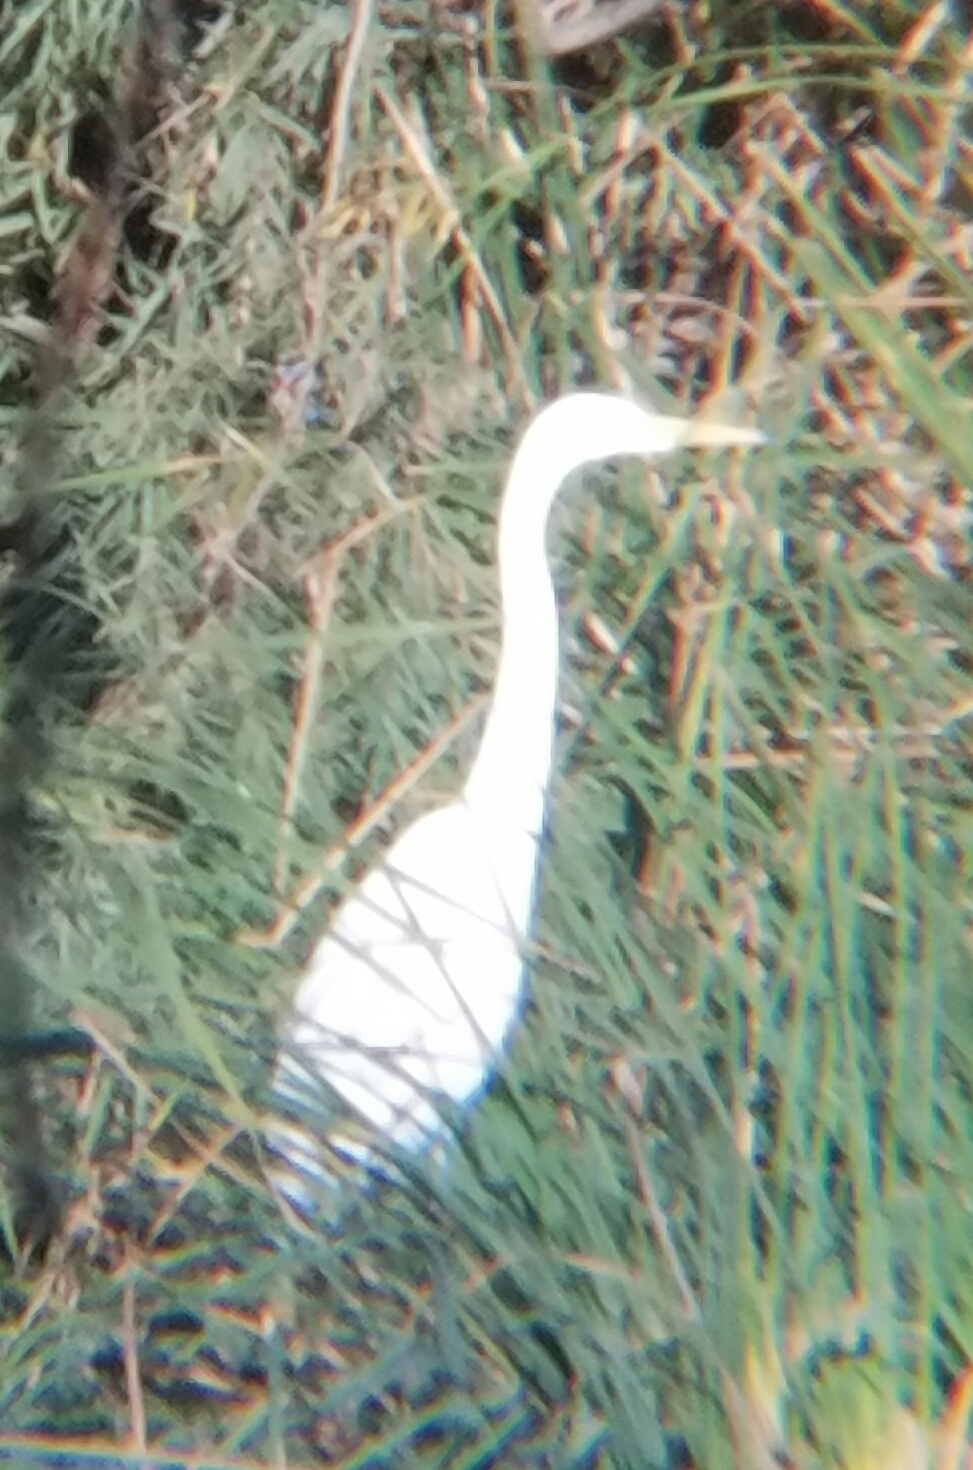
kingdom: Animalia
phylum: Chordata
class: Aves
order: Pelecaniformes
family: Ardeidae
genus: Ardea
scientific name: Ardea alba
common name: Great egret
